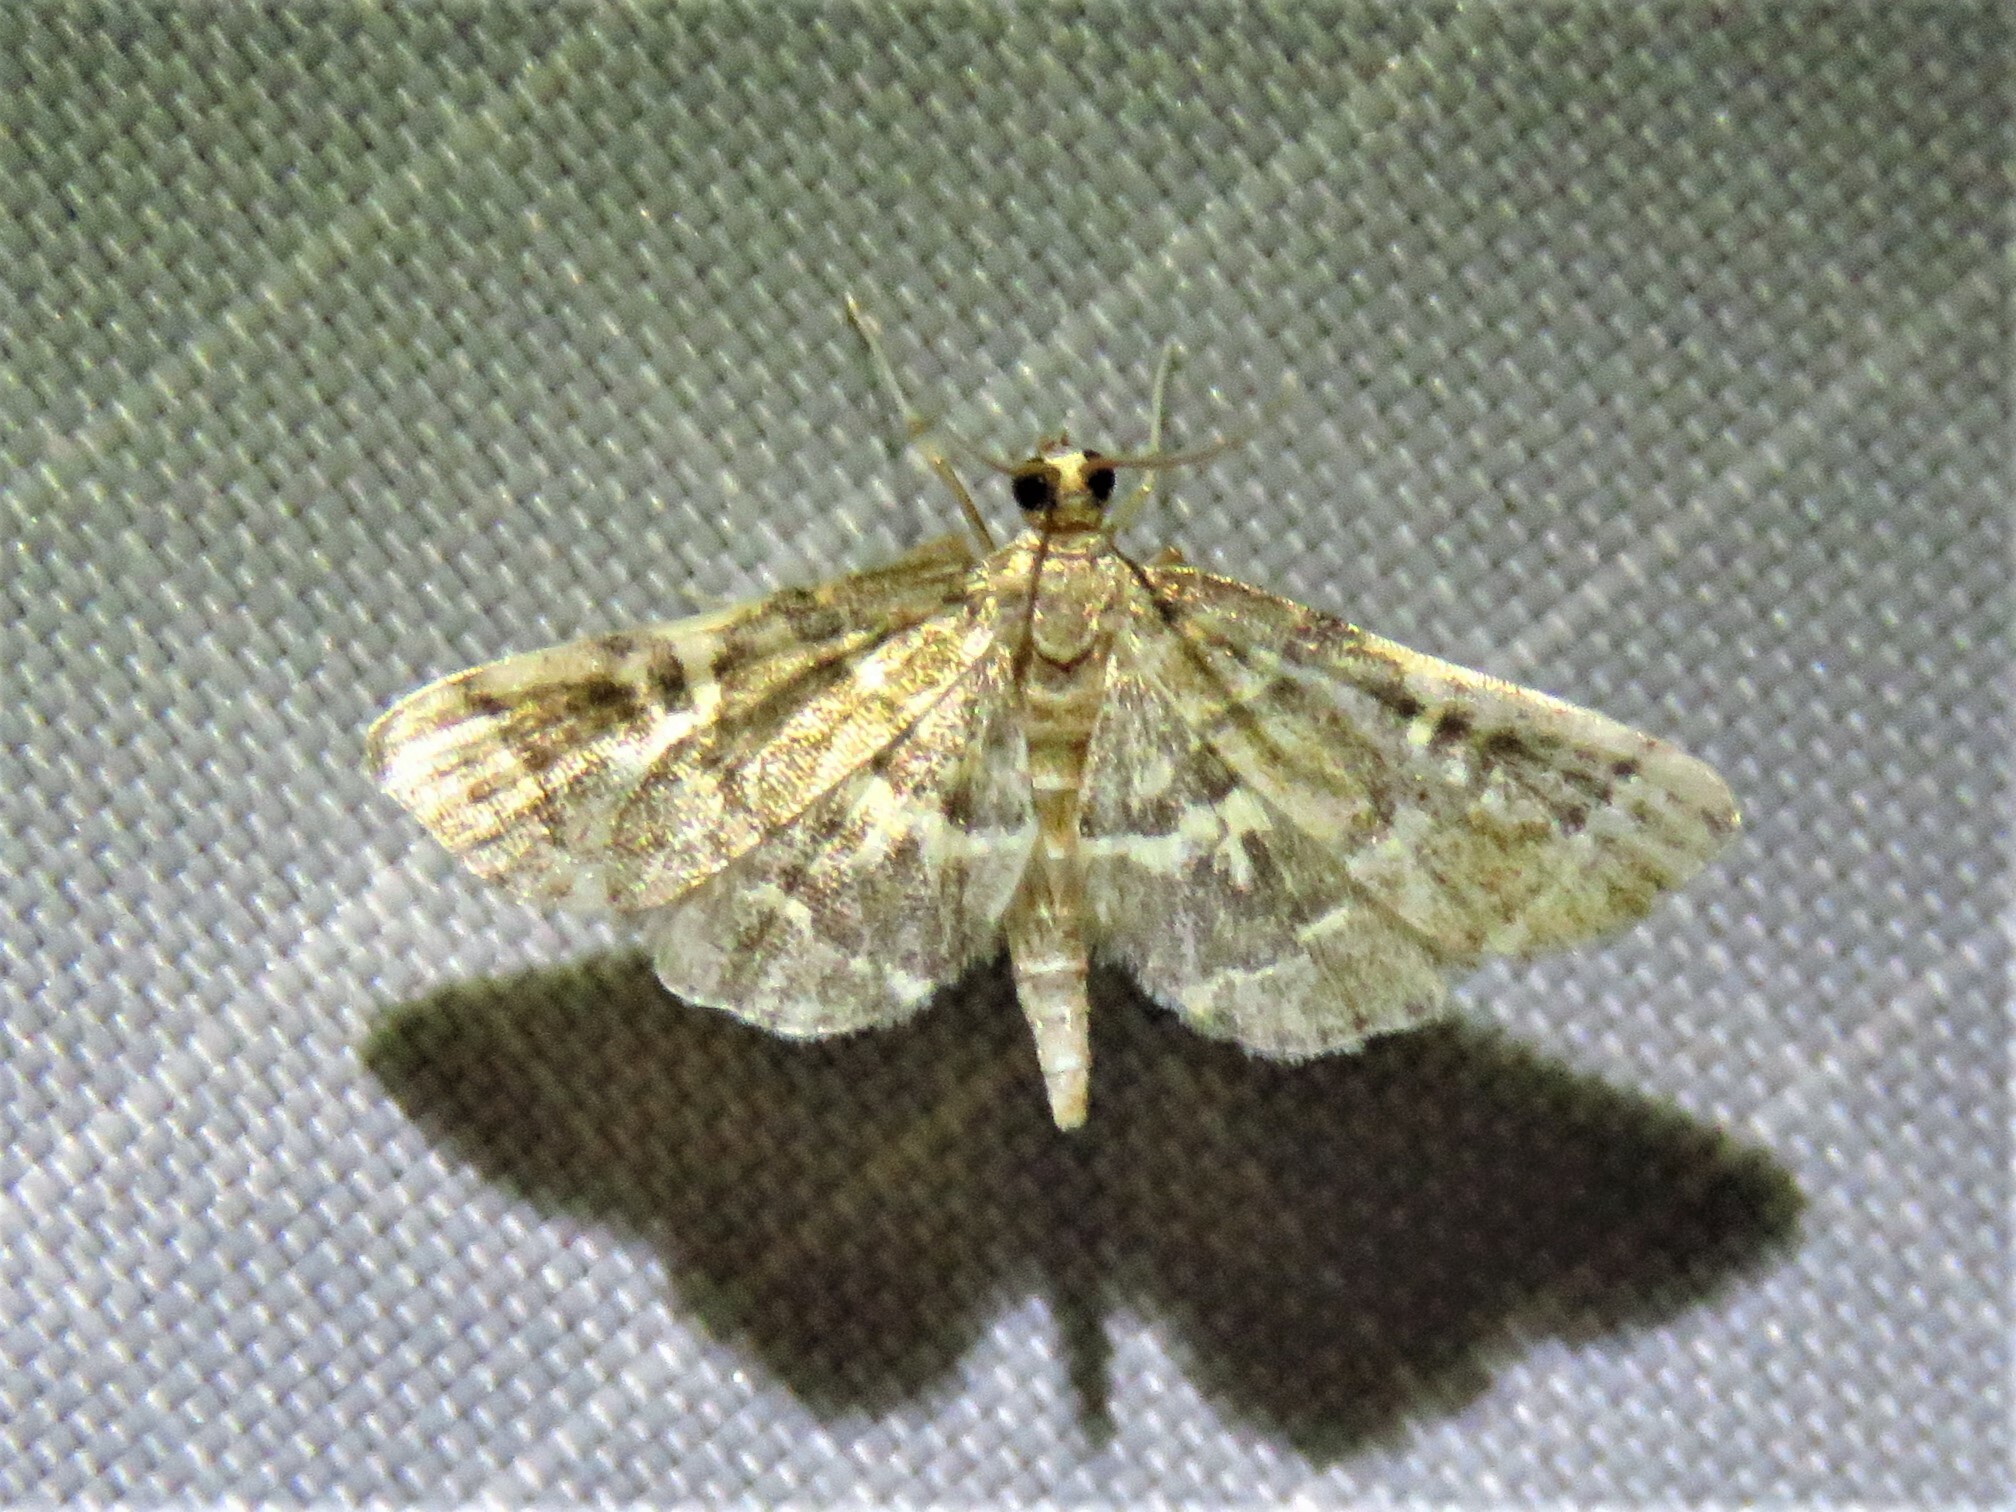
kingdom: Animalia
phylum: Arthropoda
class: Insecta
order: Lepidoptera
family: Crambidae
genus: Anageshna
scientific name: Anageshna primordialis
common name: Yellow-spotted webworm moth
